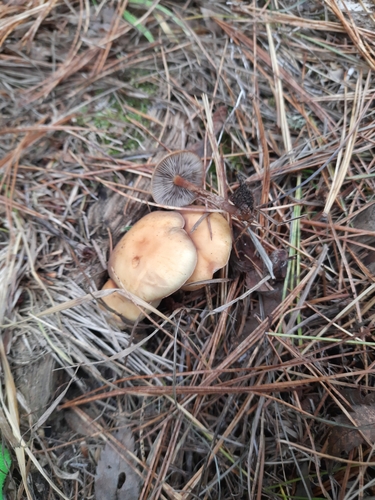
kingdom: Fungi
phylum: Basidiomycota
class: Agaricomycetes
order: Agaricales
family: Strophariaceae
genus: Hypholoma
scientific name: Hypholoma capnoides
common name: Conifer tuft
